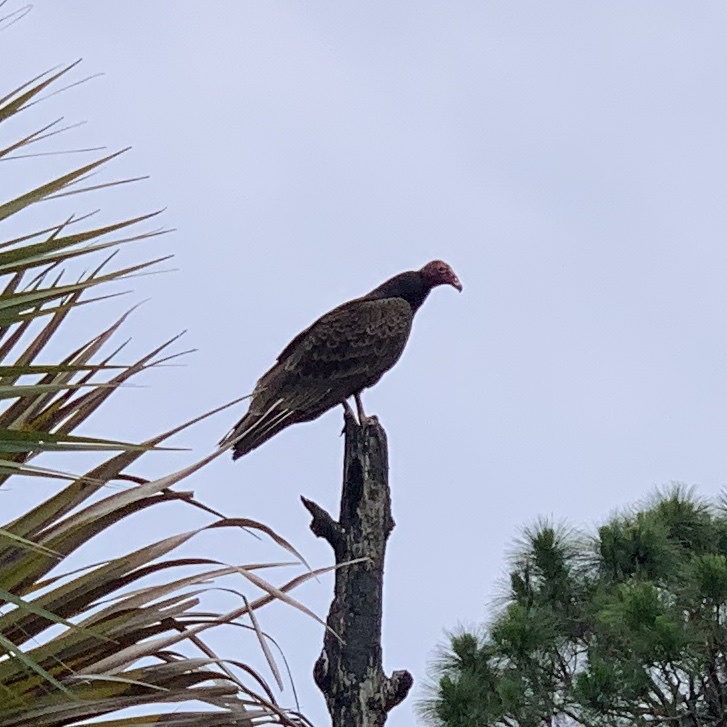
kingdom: Animalia
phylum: Chordata
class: Aves
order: Accipitriformes
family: Cathartidae
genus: Cathartes
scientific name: Cathartes aura
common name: Turkey vulture
